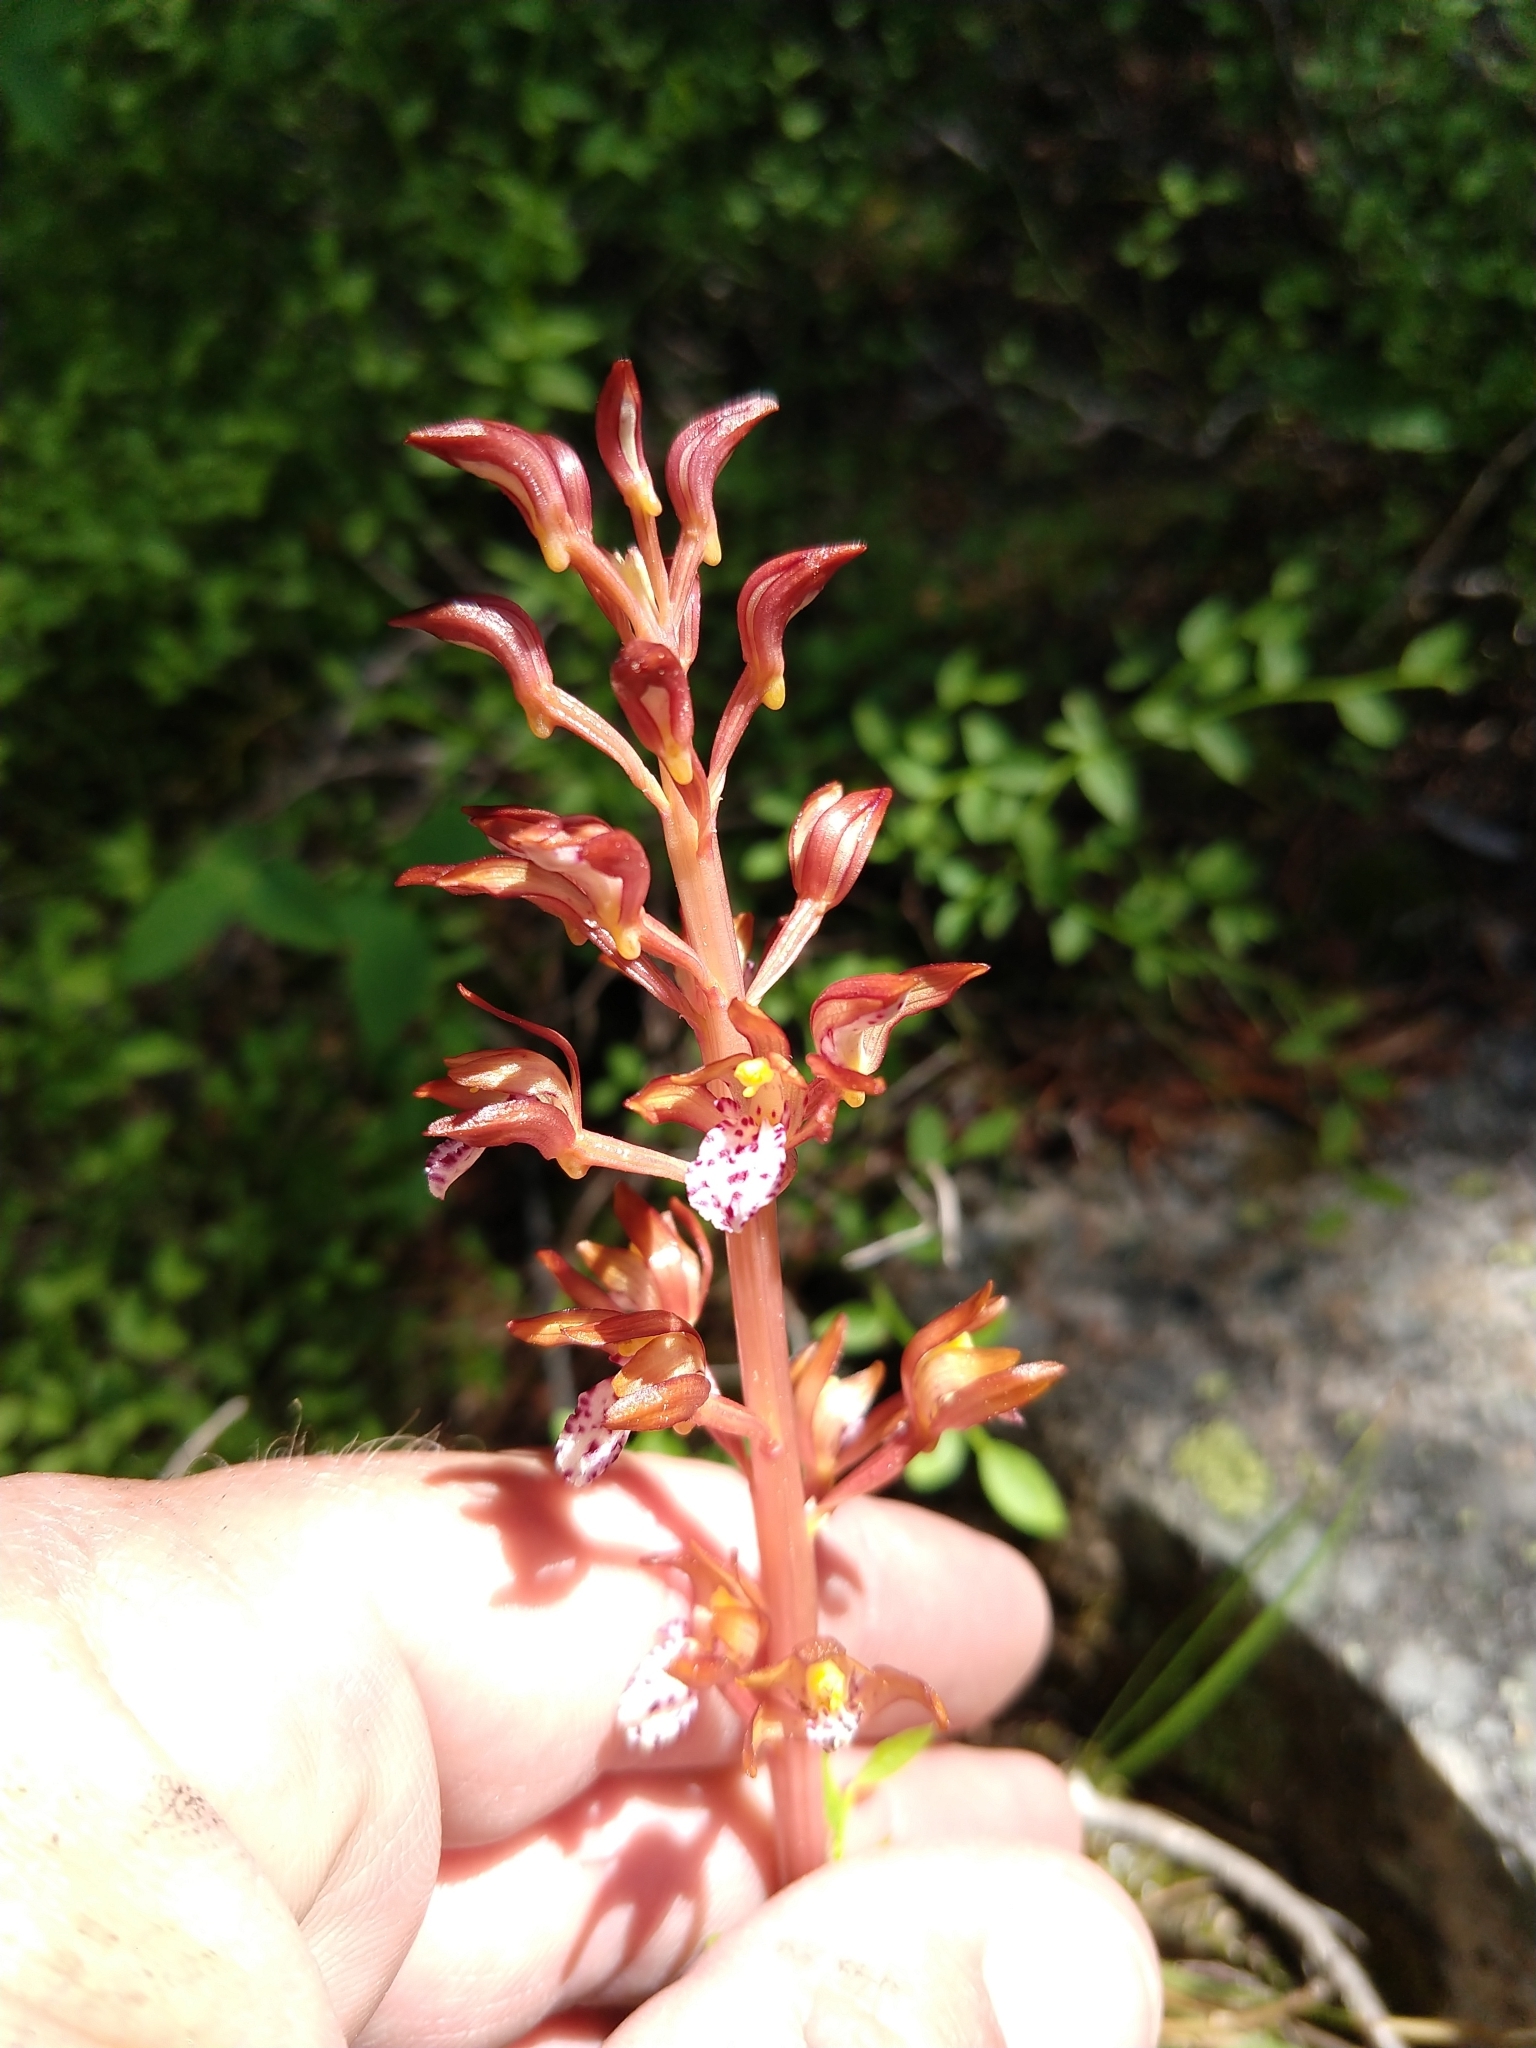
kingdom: Plantae
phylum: Tracheophyta
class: Liliopsida
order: Asparagales
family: Orchidaceae
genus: Corallorhiza
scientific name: Corallorhiza maculata
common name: Spotted coralroot
